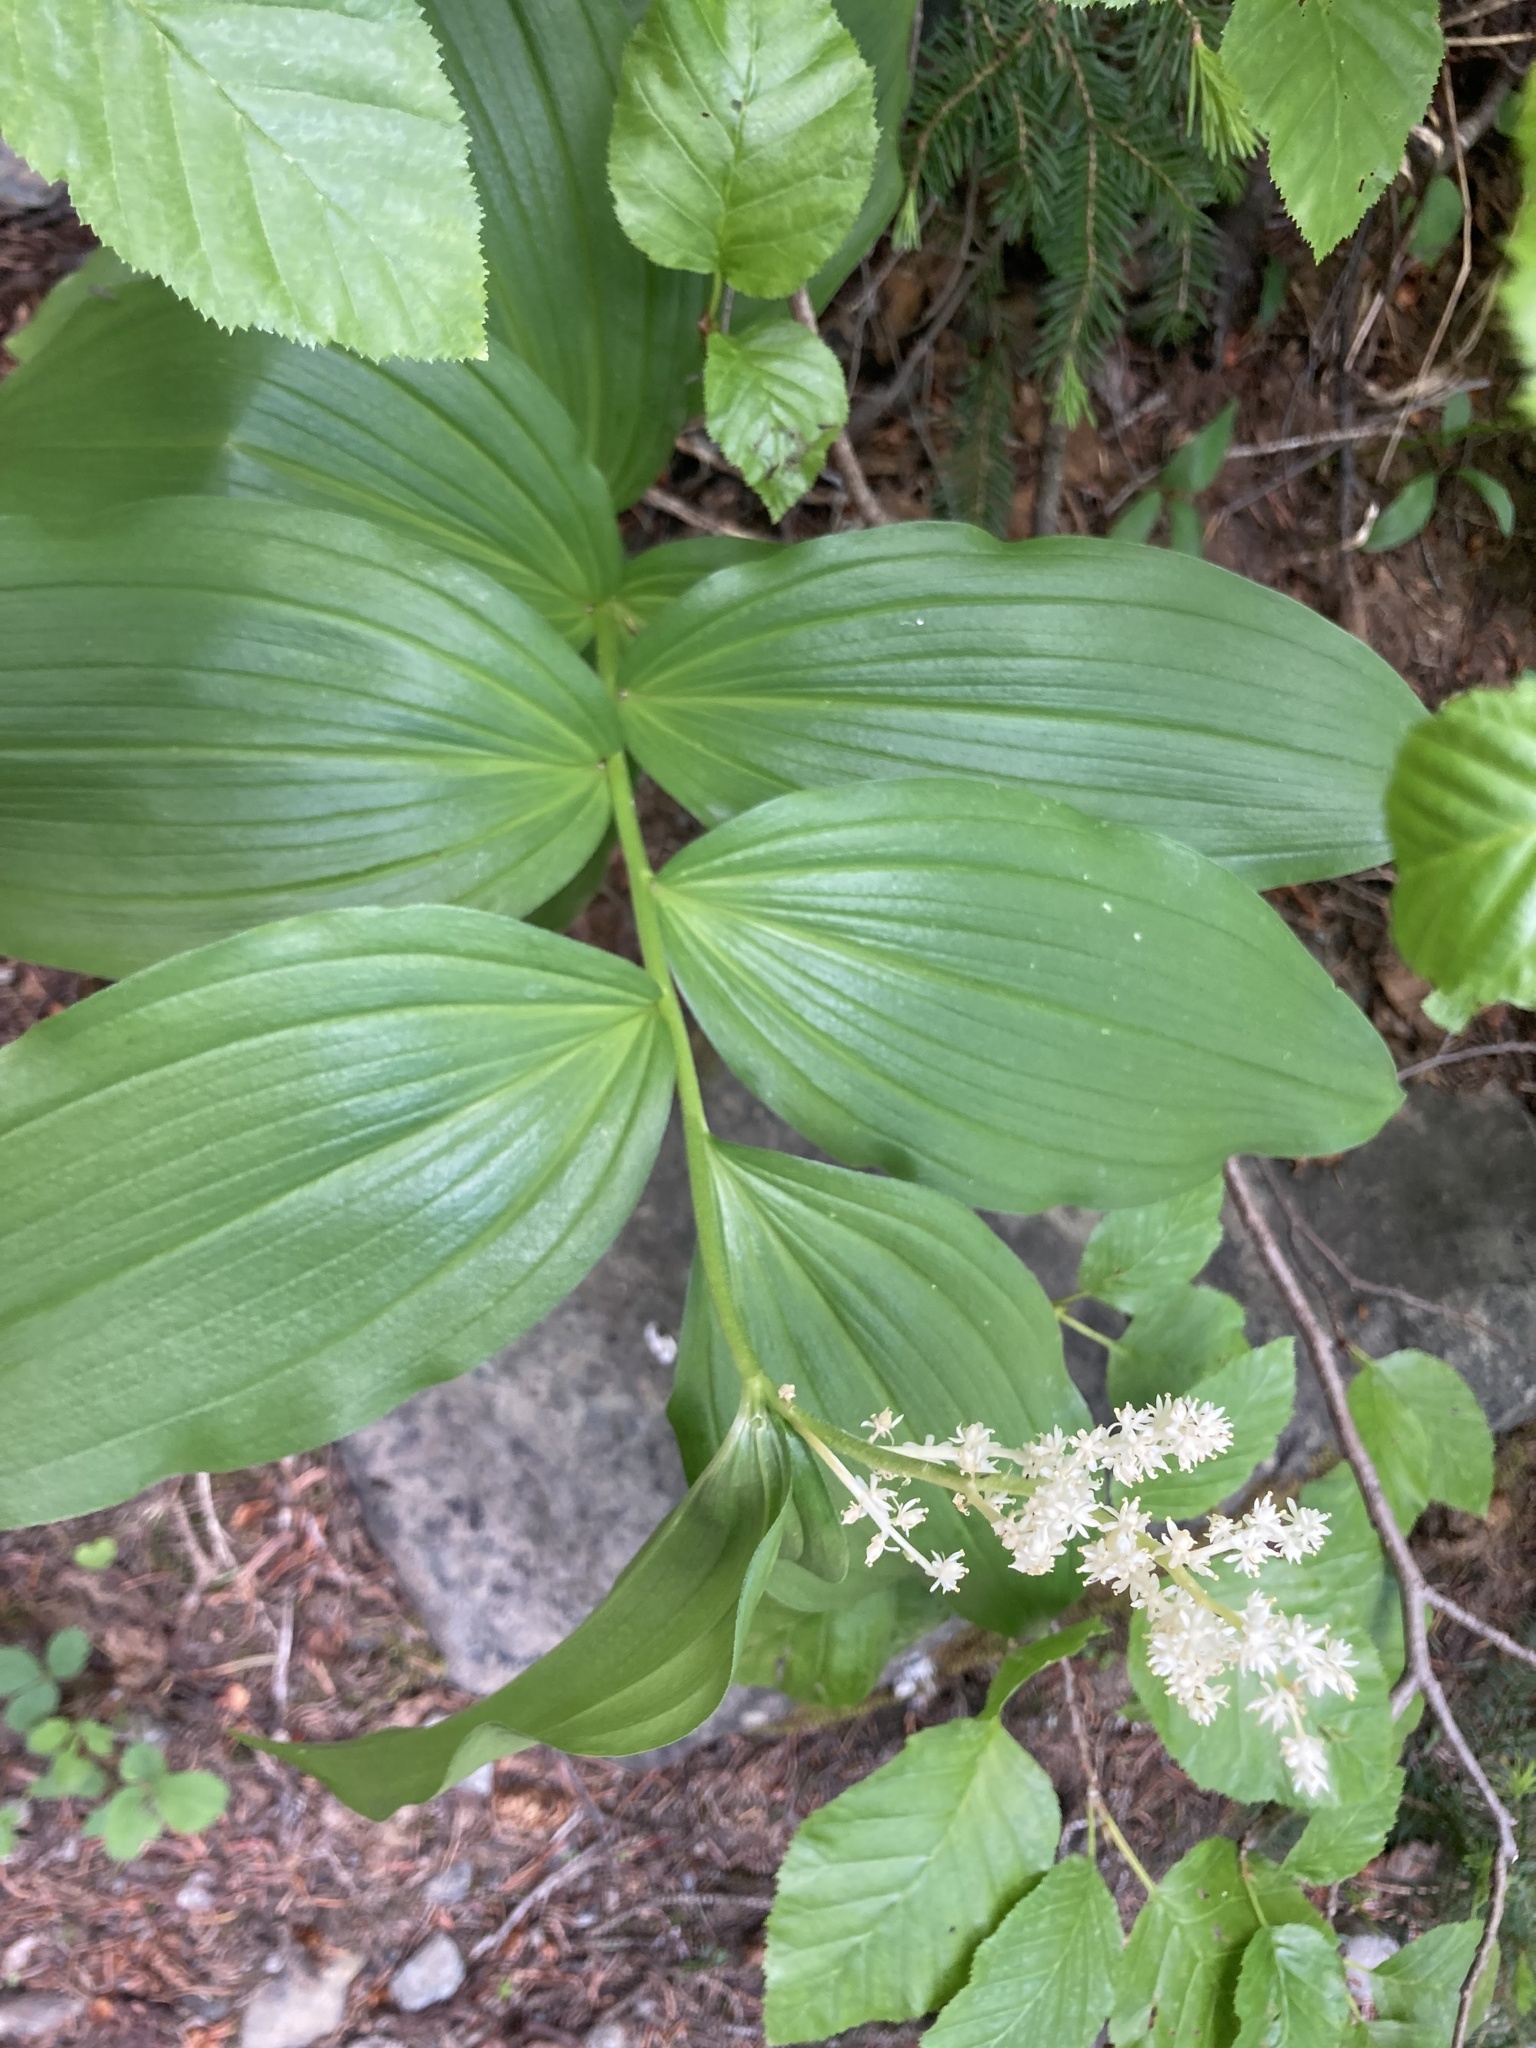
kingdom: Plantae
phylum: Tracheophyta
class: Liliopsida
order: Asparagales
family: Asparagaceae
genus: Maianthemum
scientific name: Maianthemum racemosum
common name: False spikenard
